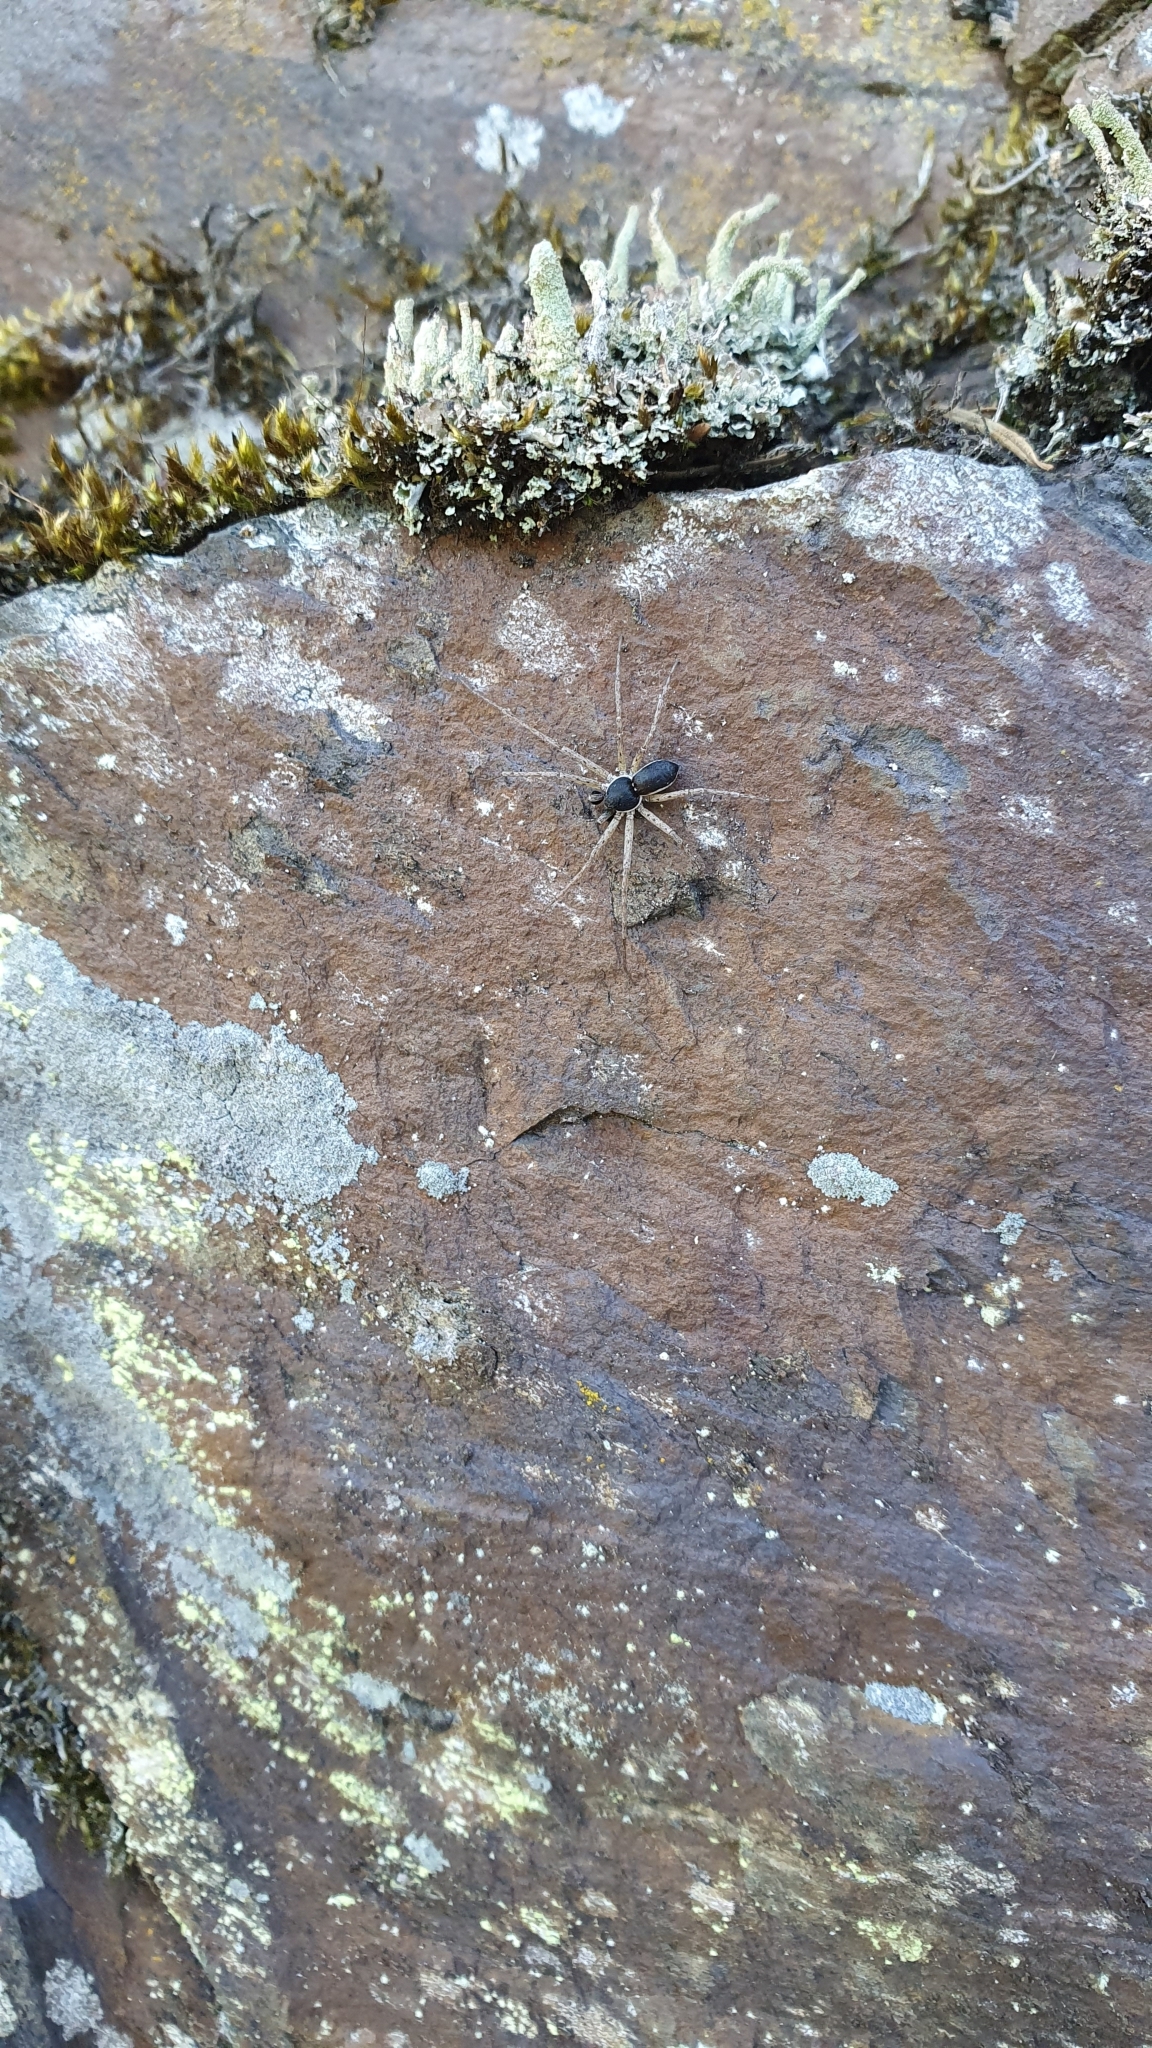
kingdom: Animalia
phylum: Arthropoda
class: Arachnida
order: Araneae
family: Philodromidae
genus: Philodromus
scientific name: Philodromus dispar
